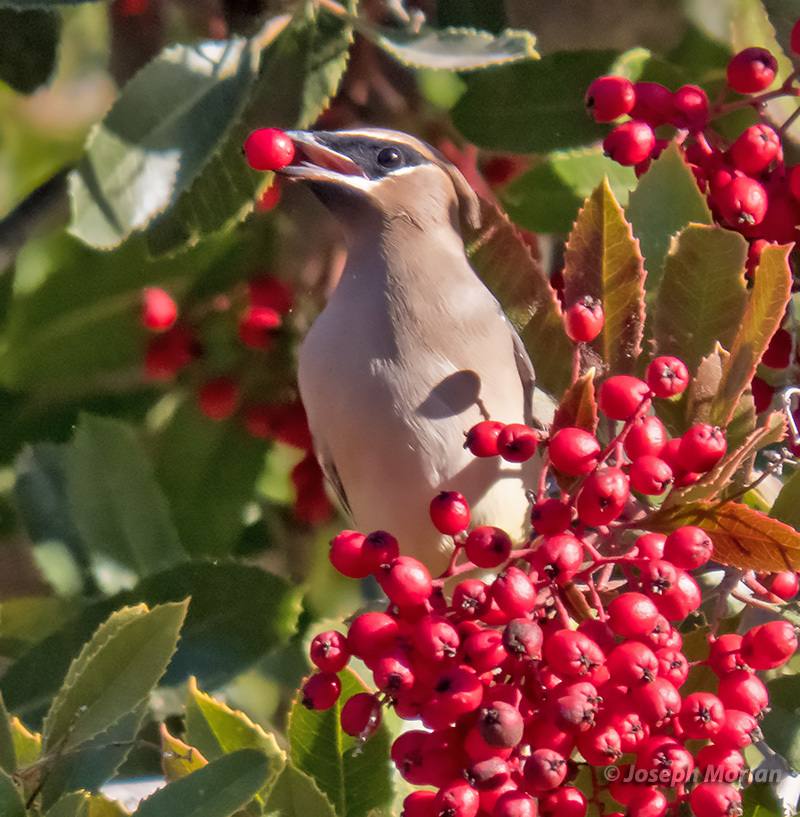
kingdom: Animalia
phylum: Chordata
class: Aves
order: Passeriformes
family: Bombycillidae
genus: Bombycilla
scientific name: Bombycilla cedrorum
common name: Cedar waxwing
